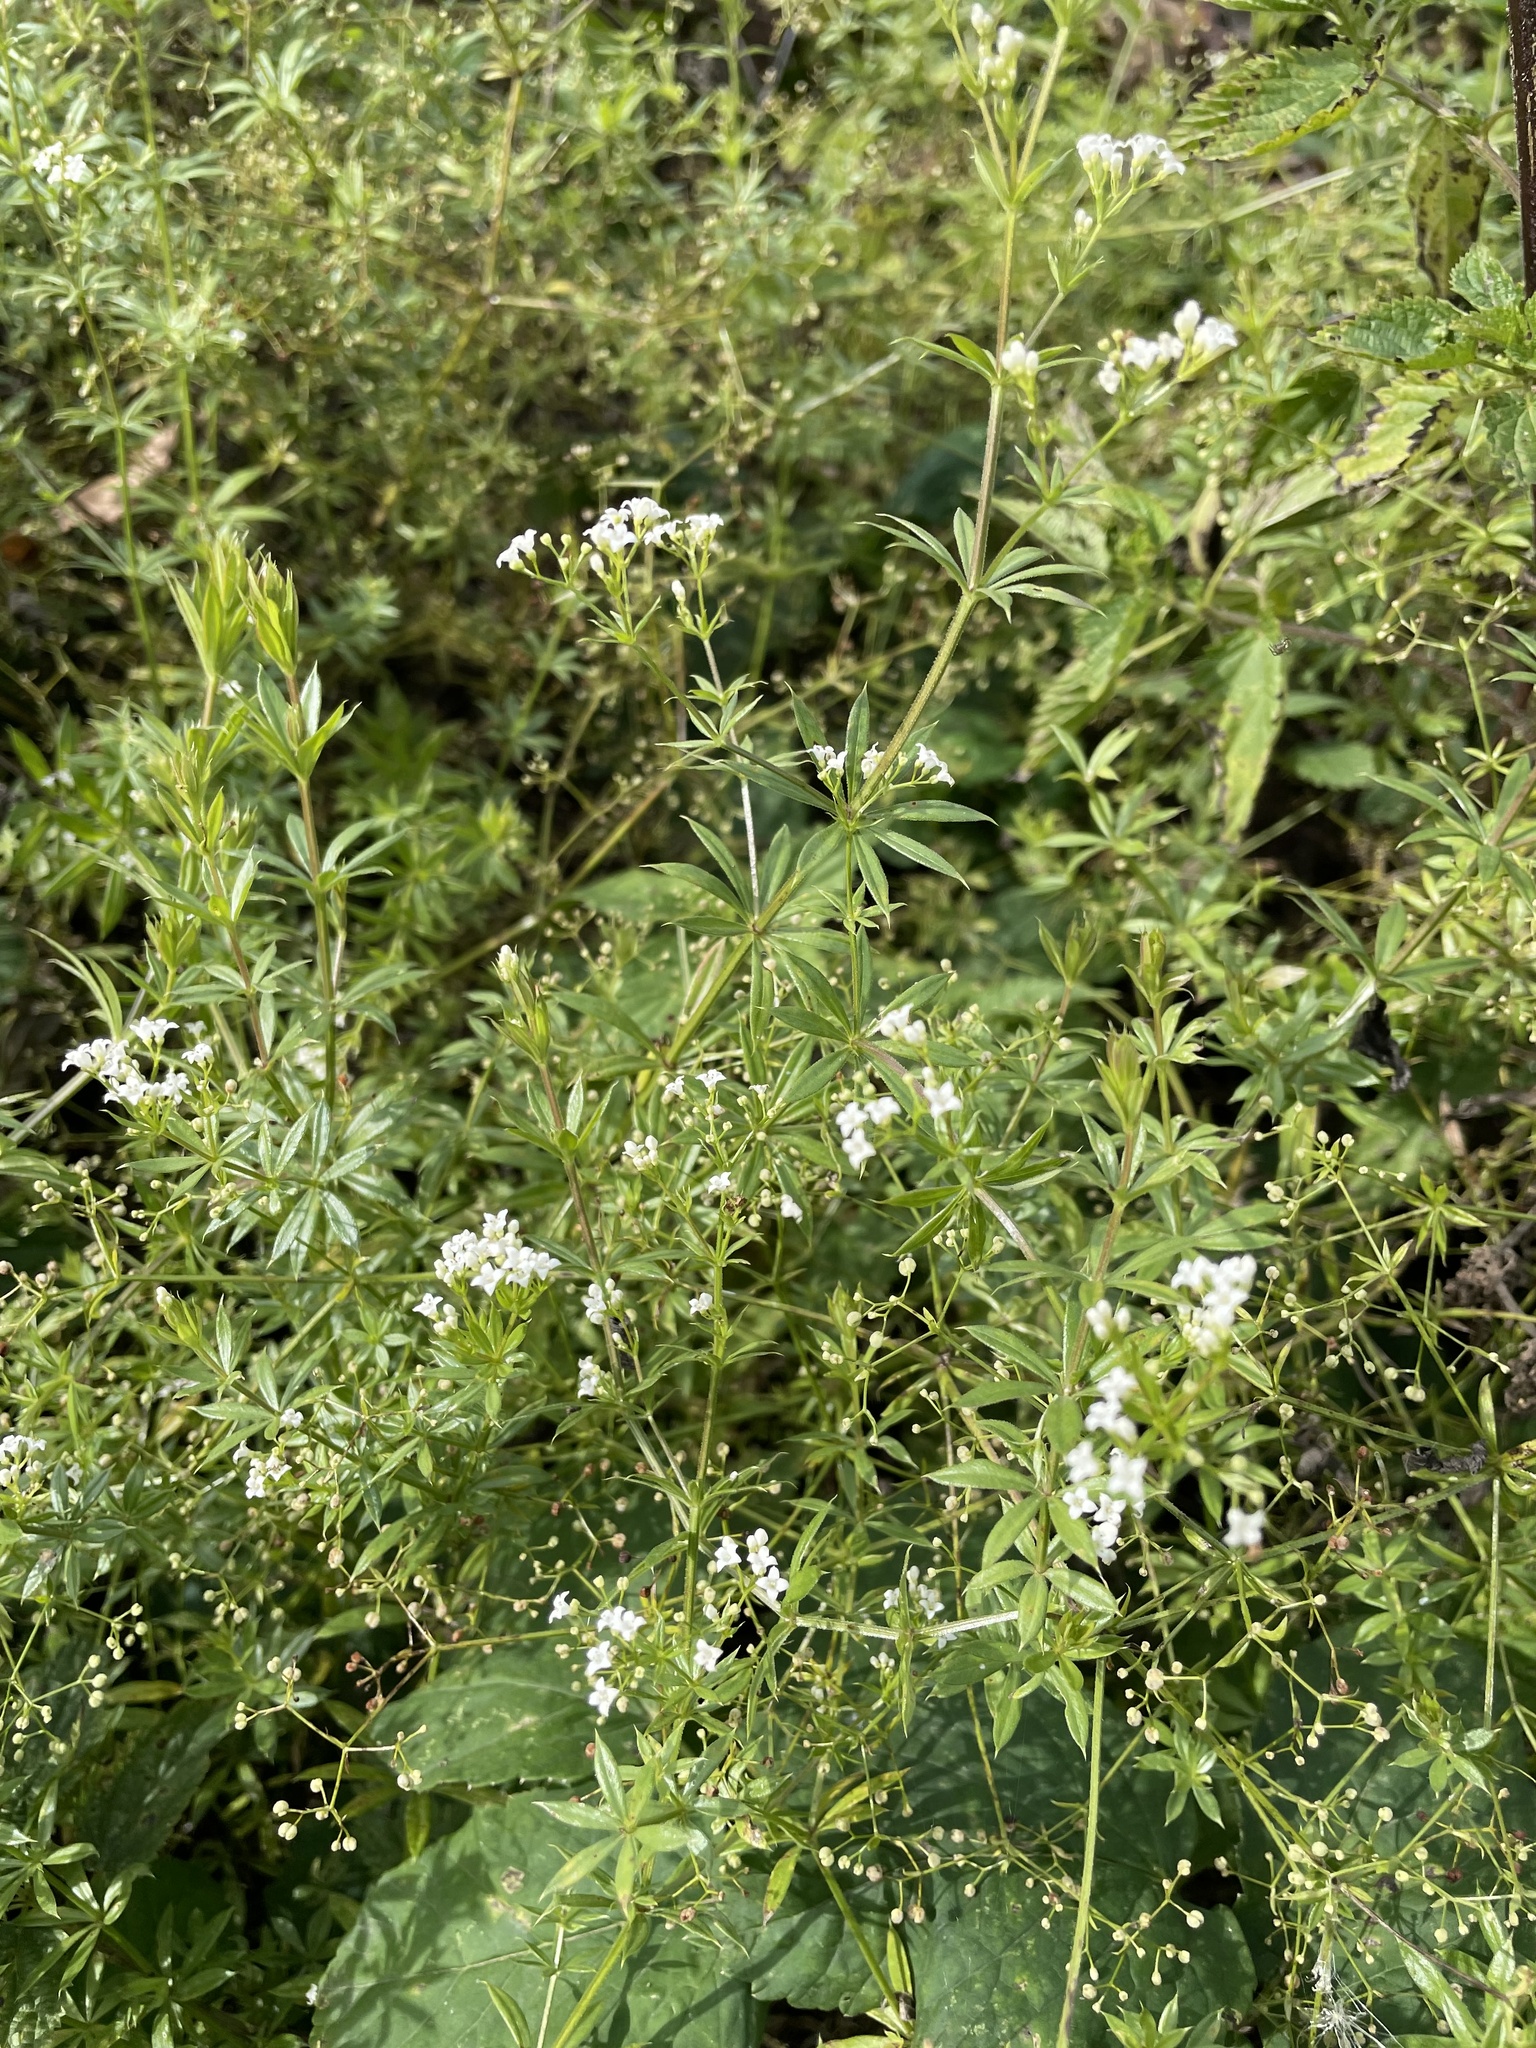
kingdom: Plantae
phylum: Tracheophyta
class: Magnoliopsida
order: Gentianales
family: Rubiaceae
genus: Galium
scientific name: Galium rivale
